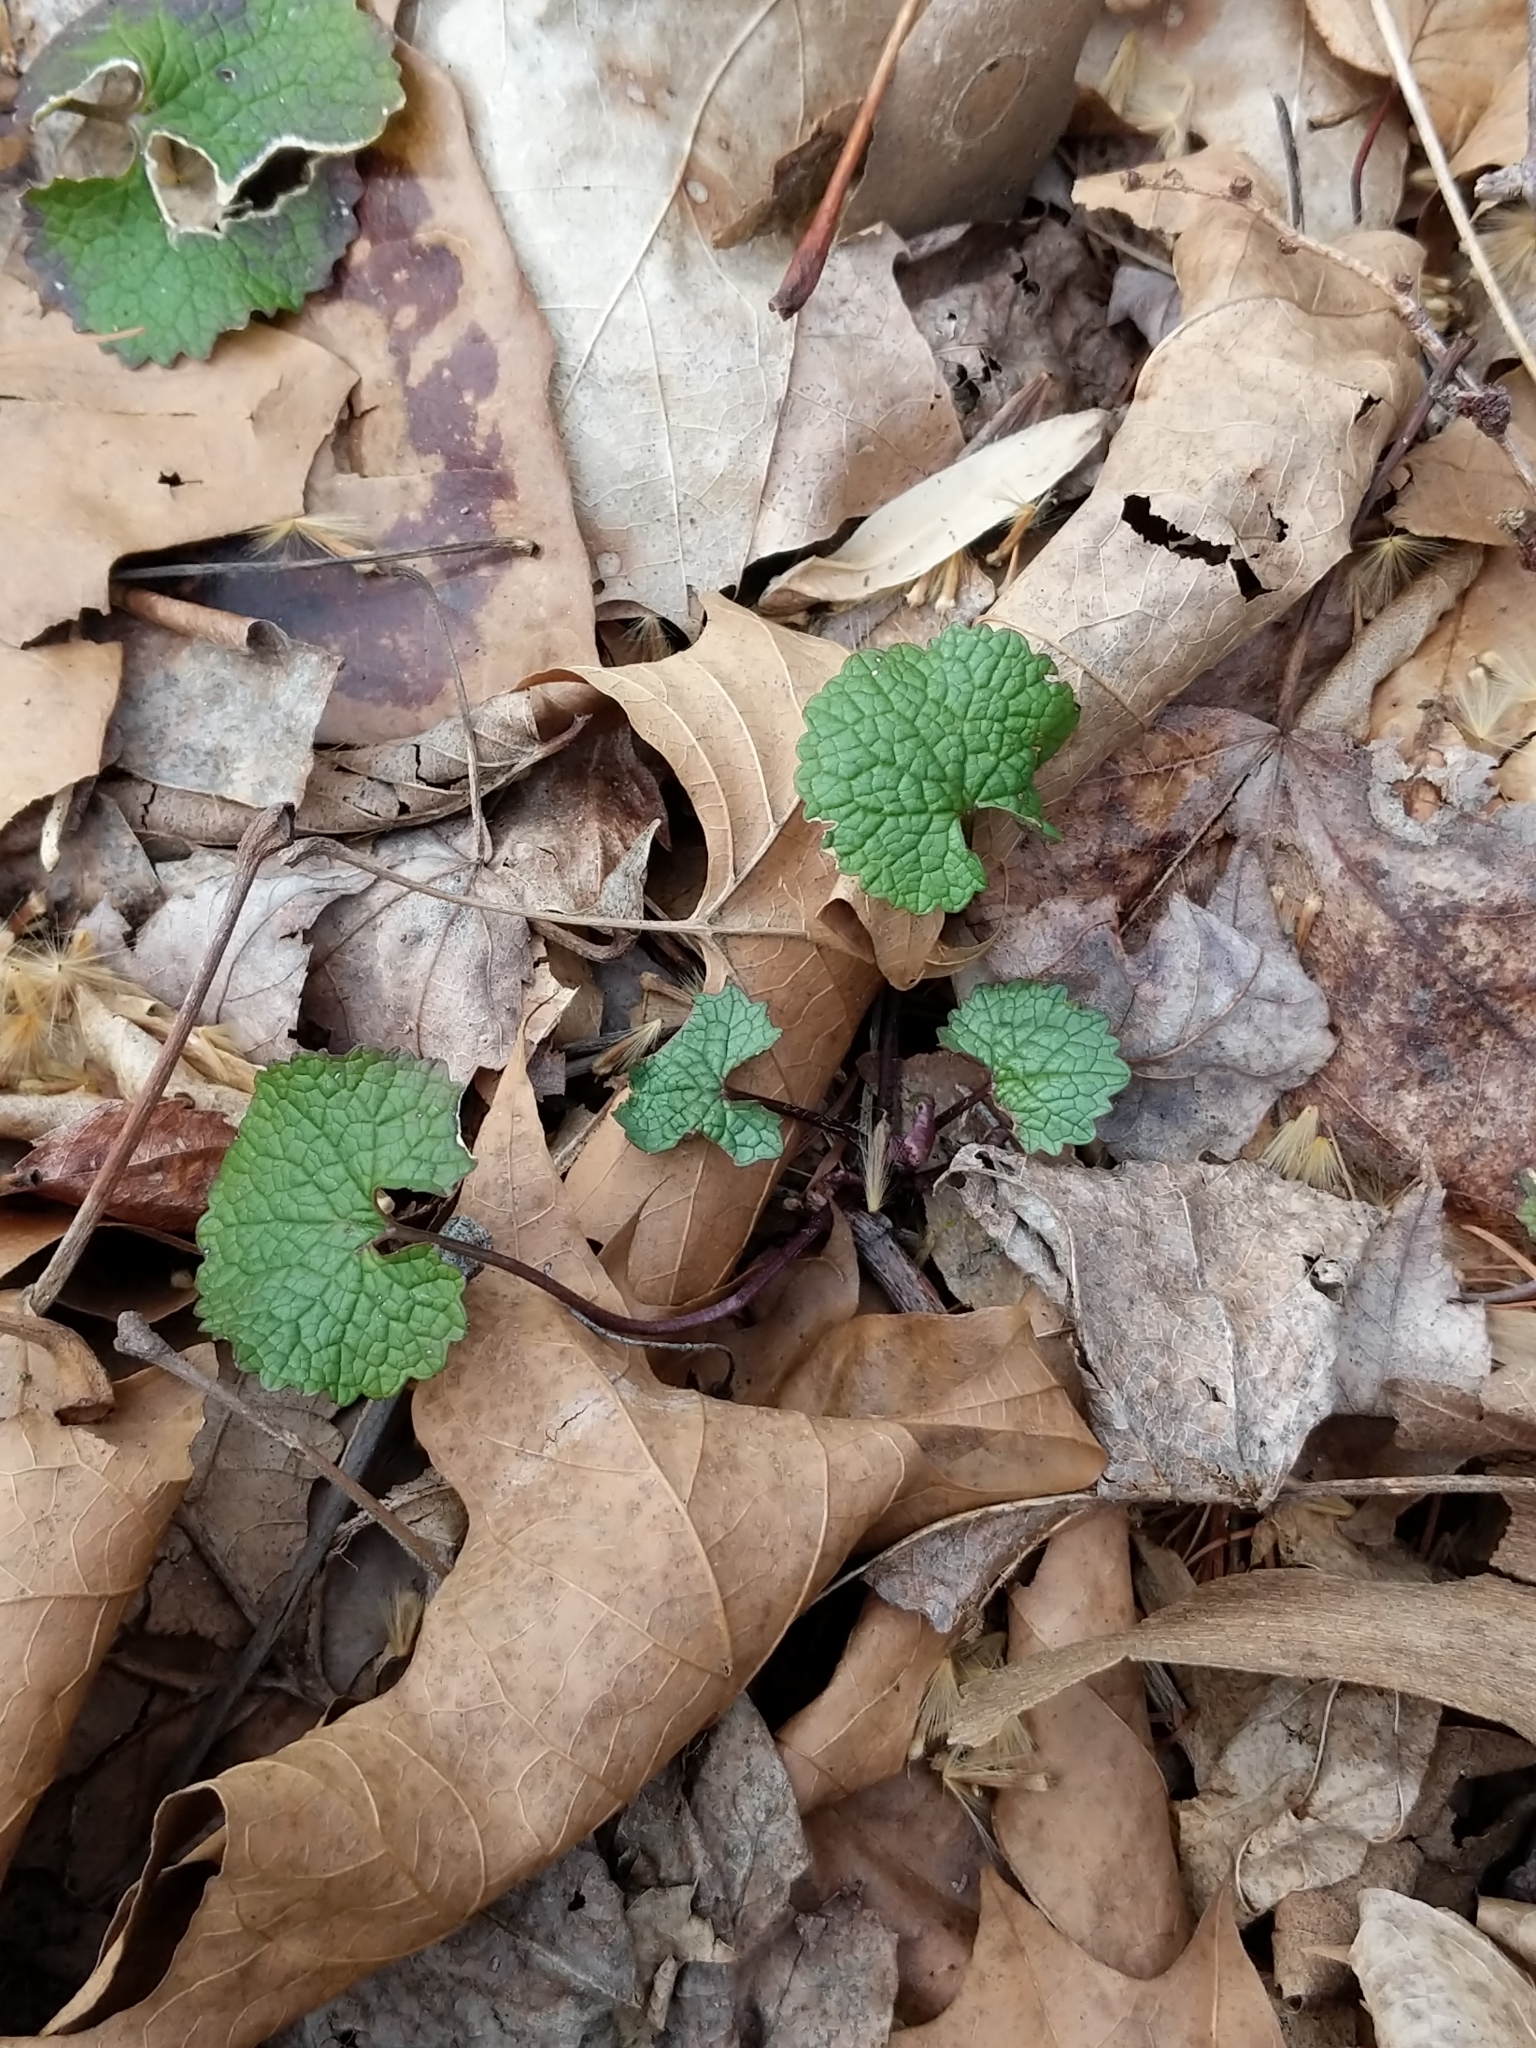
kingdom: Plantae
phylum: Tracheophyta
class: Magnoliopsida
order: Brassicales
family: Brassicaceae
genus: Alliaria
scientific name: Alliaria petiolata
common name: Garlic mustard
